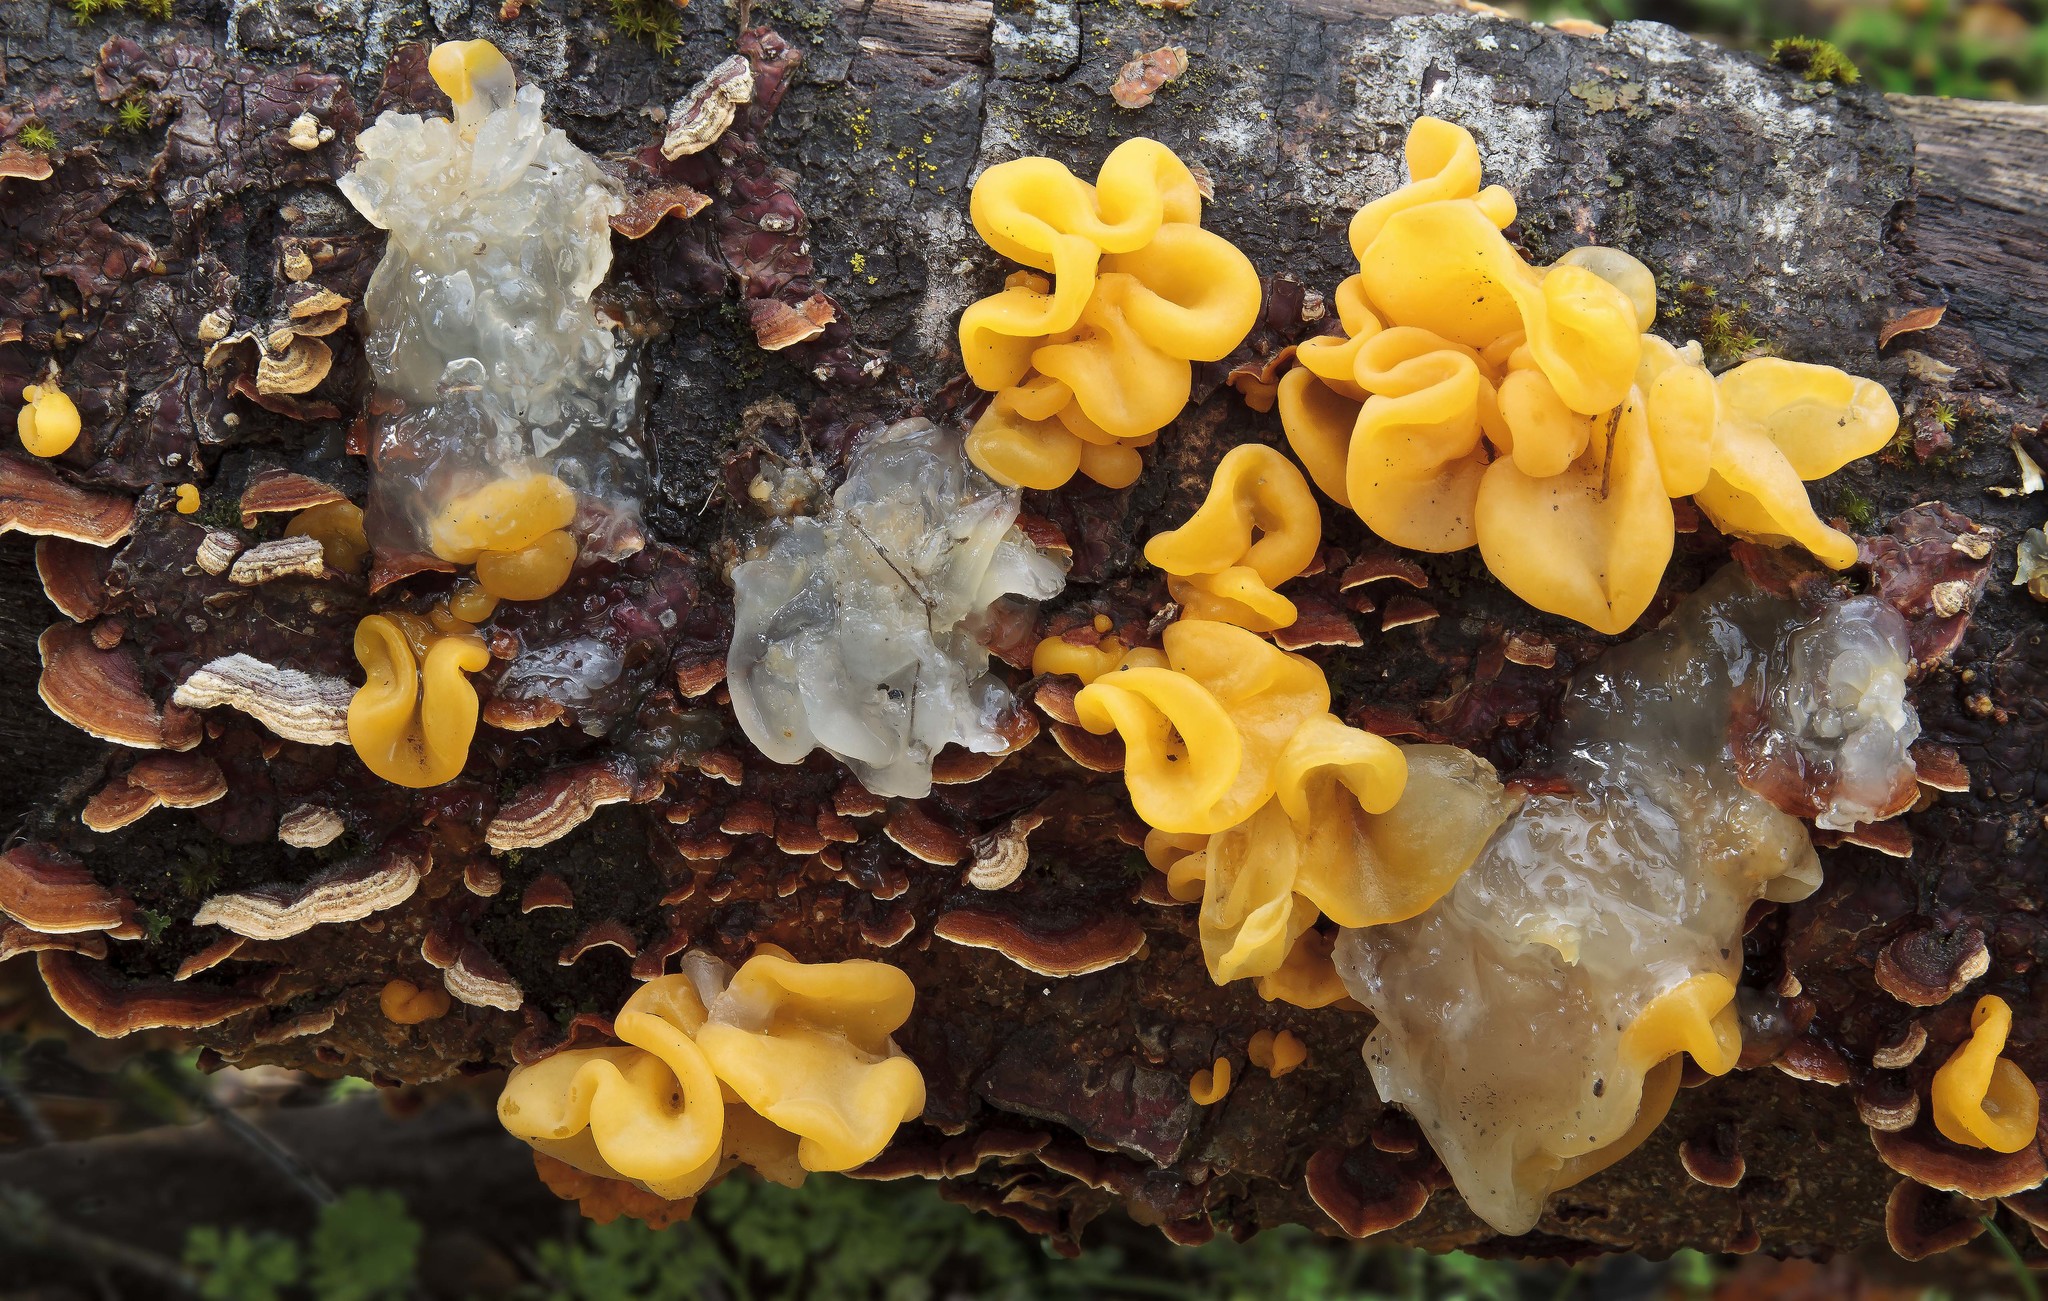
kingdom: Fungi
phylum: Basidiomycota
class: Tremellomycetes
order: Tremellales
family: Naemateliaceae
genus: Naematelia
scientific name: Naematelia aurantia
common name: Golden ear
